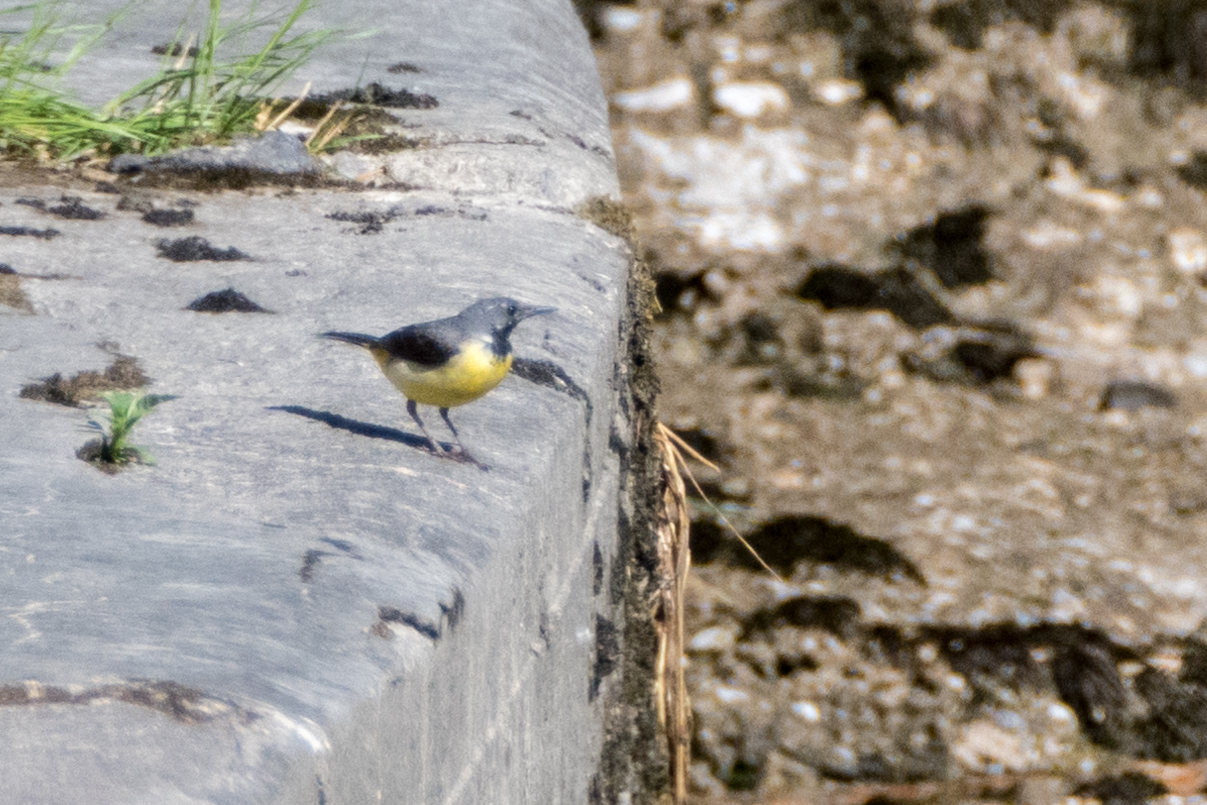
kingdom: Animalia
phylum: Chordata
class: Aves
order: Passeriformes
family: Motacillidae
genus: Motacilla
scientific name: Motacilla cinerea
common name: Grey wagtail
